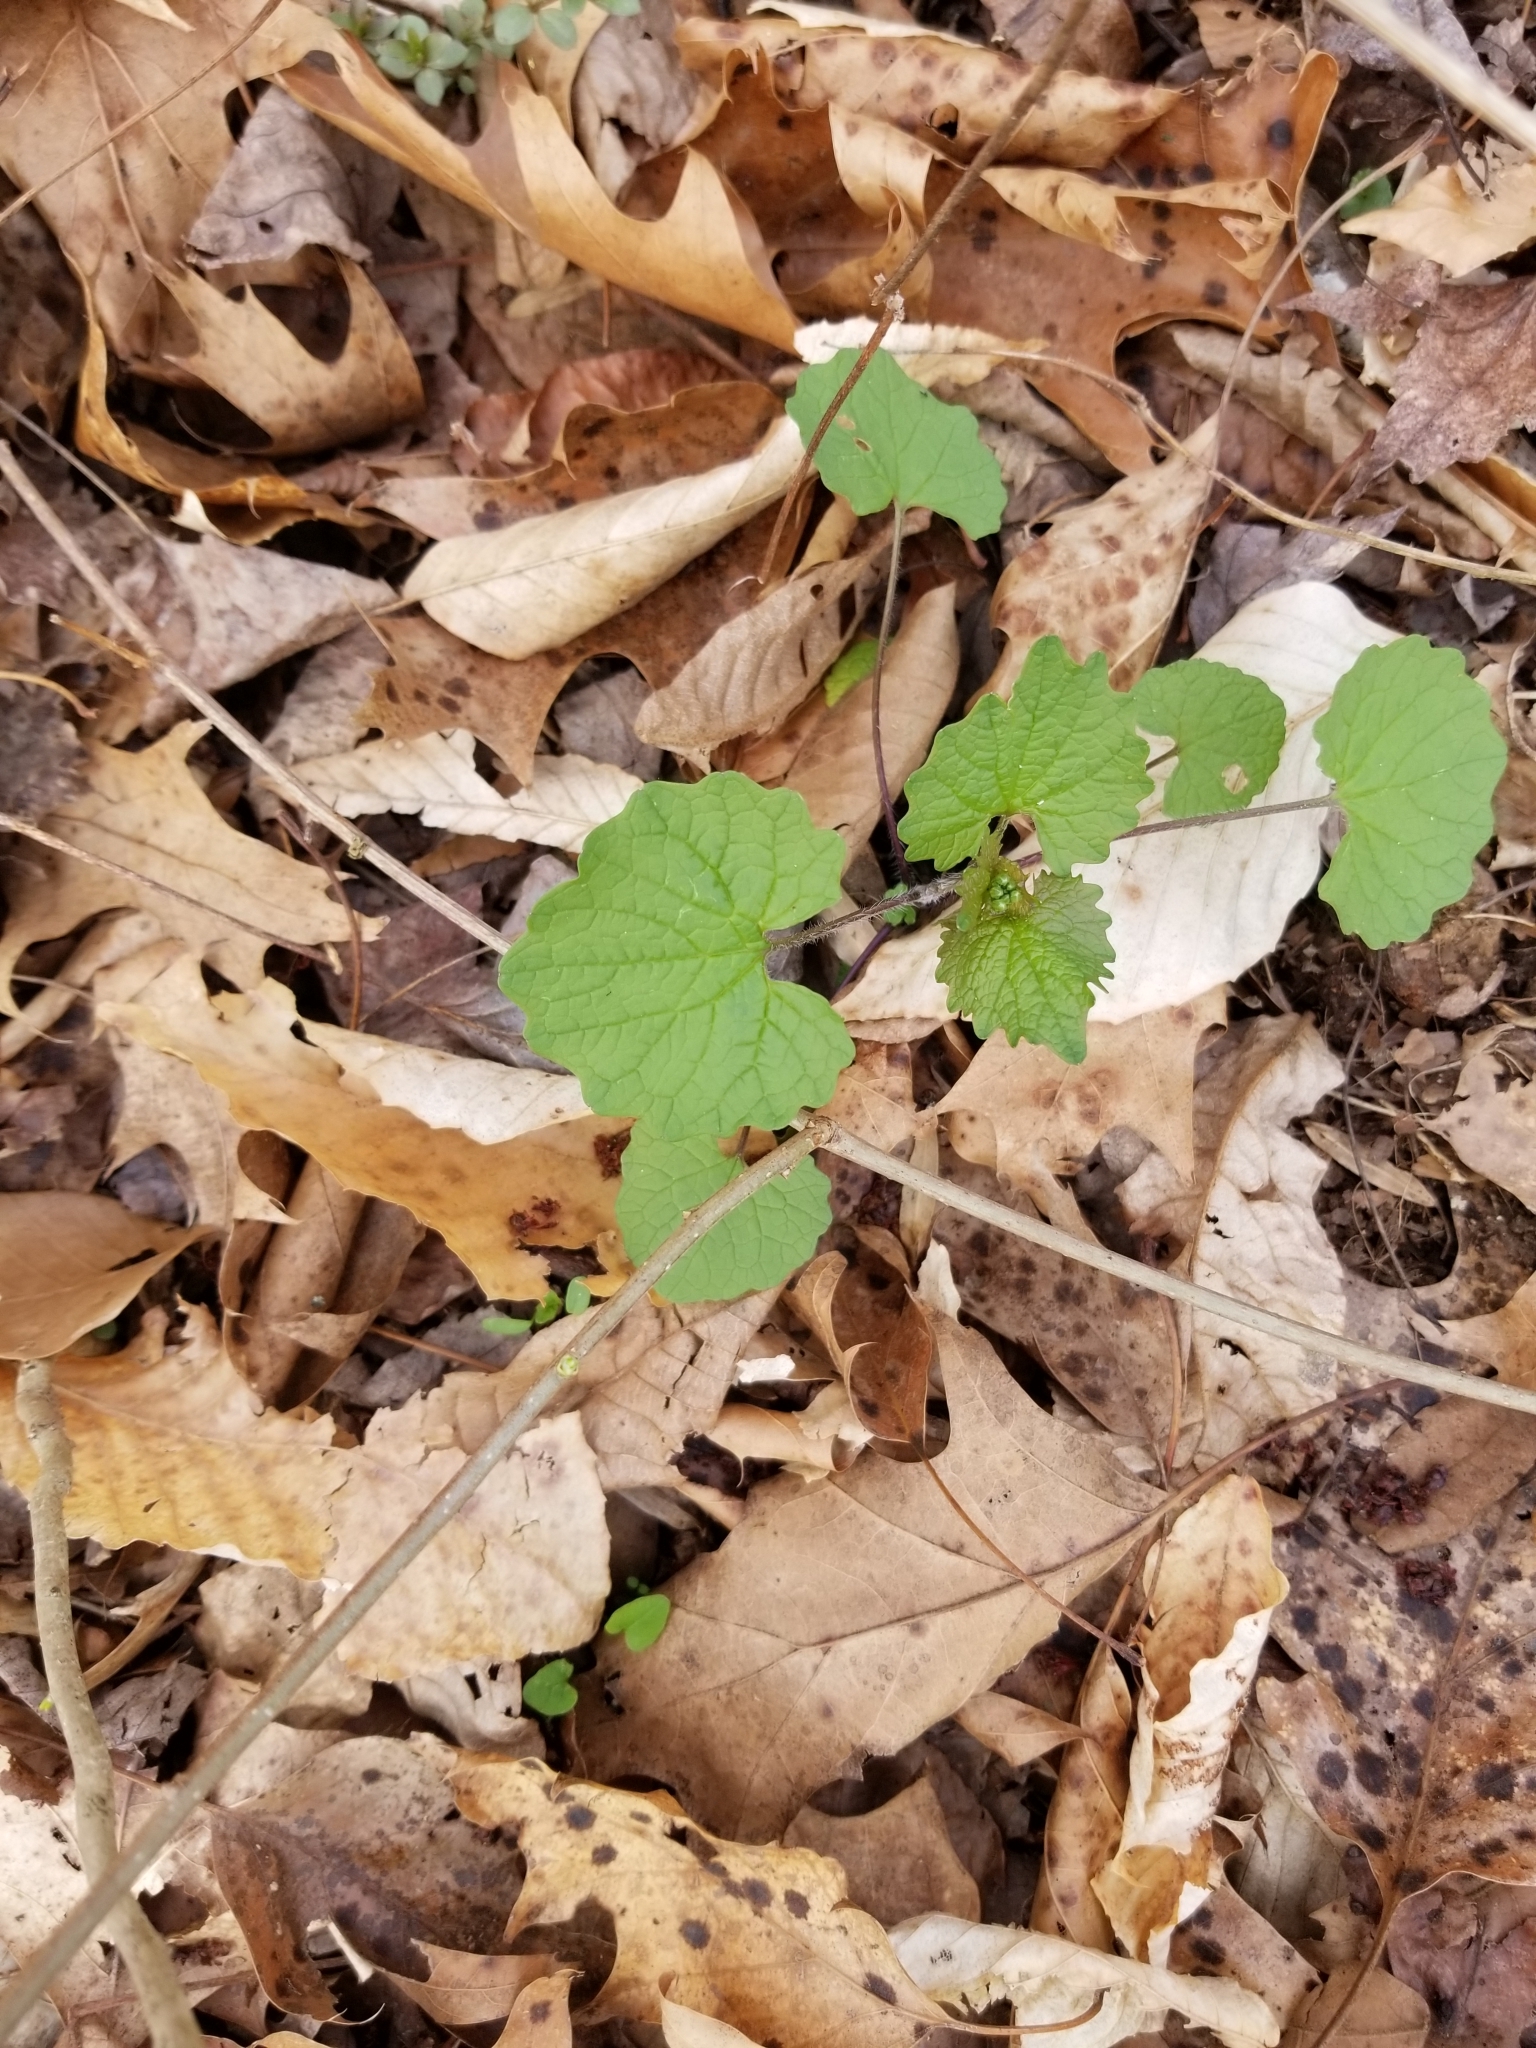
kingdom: Plantae
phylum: Tracheophyta
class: Magnoliopsida
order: Brassicales
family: Brassicaceae
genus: Alliaria
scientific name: Alliaria petiolata
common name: Garlic mustard
